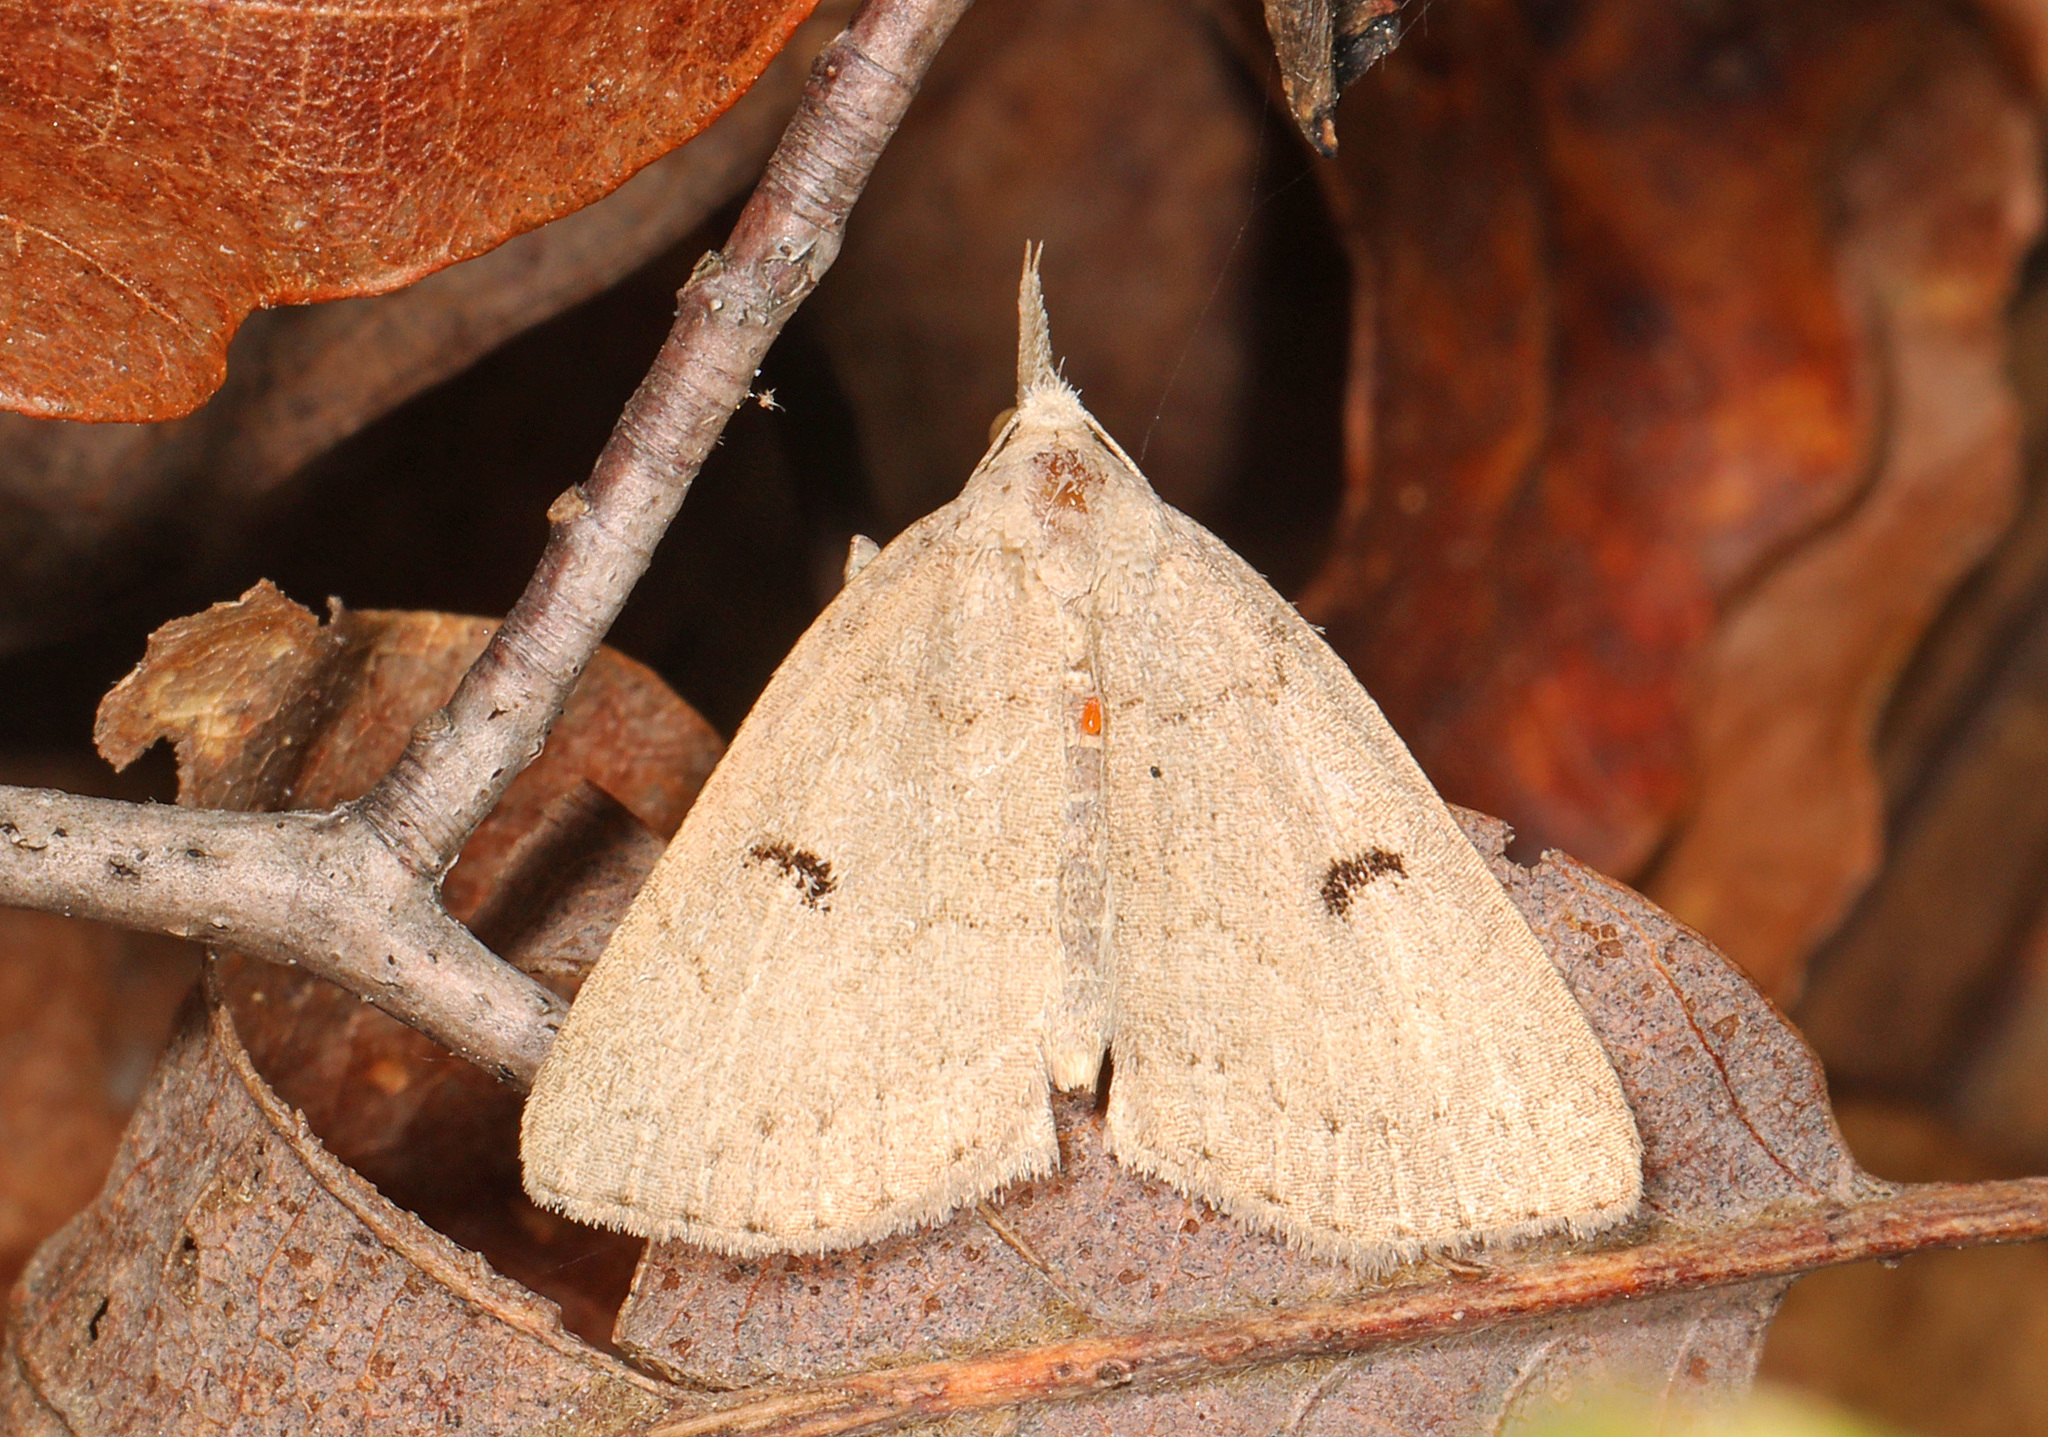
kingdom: Animalia
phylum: Arthropoda
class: Insecta
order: Lepidoptera
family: Erebidae
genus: Macrochilo
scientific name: Macrochilo morbidalis
